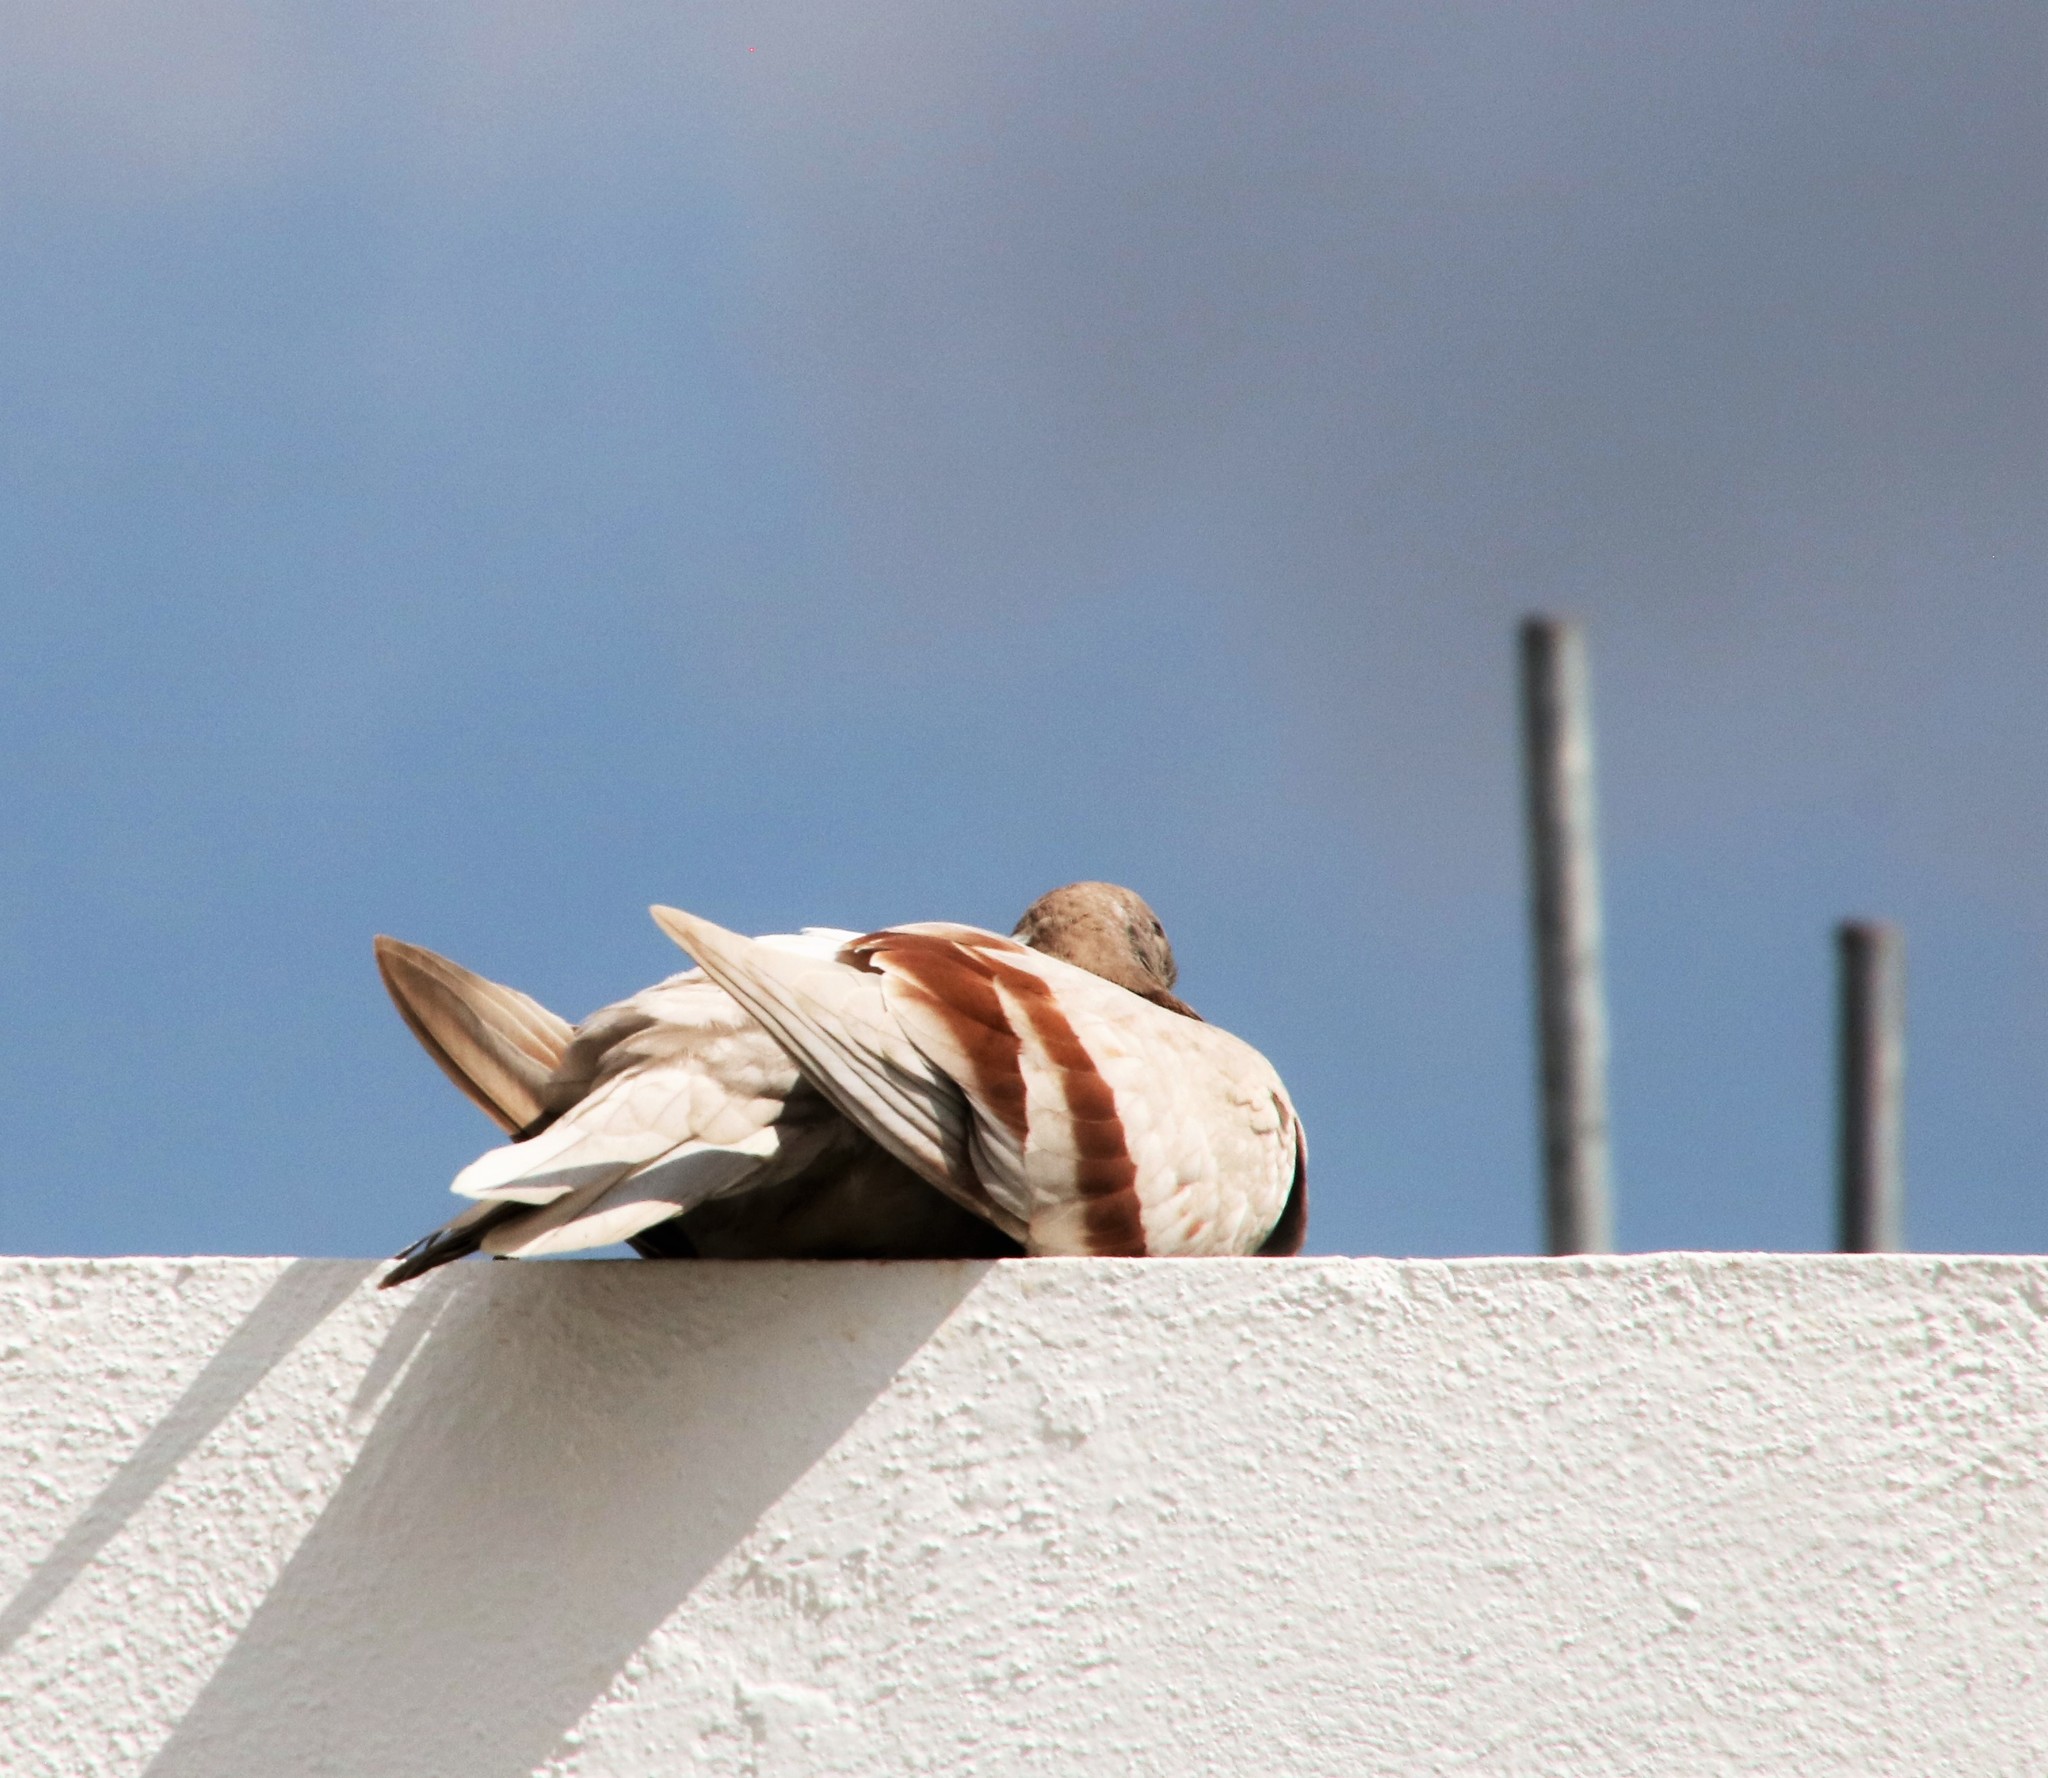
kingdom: Animalia
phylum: Chordata
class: Aves
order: Columbiformes
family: Columbidae
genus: Columba
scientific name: Columba livia
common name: Rock pigeon
